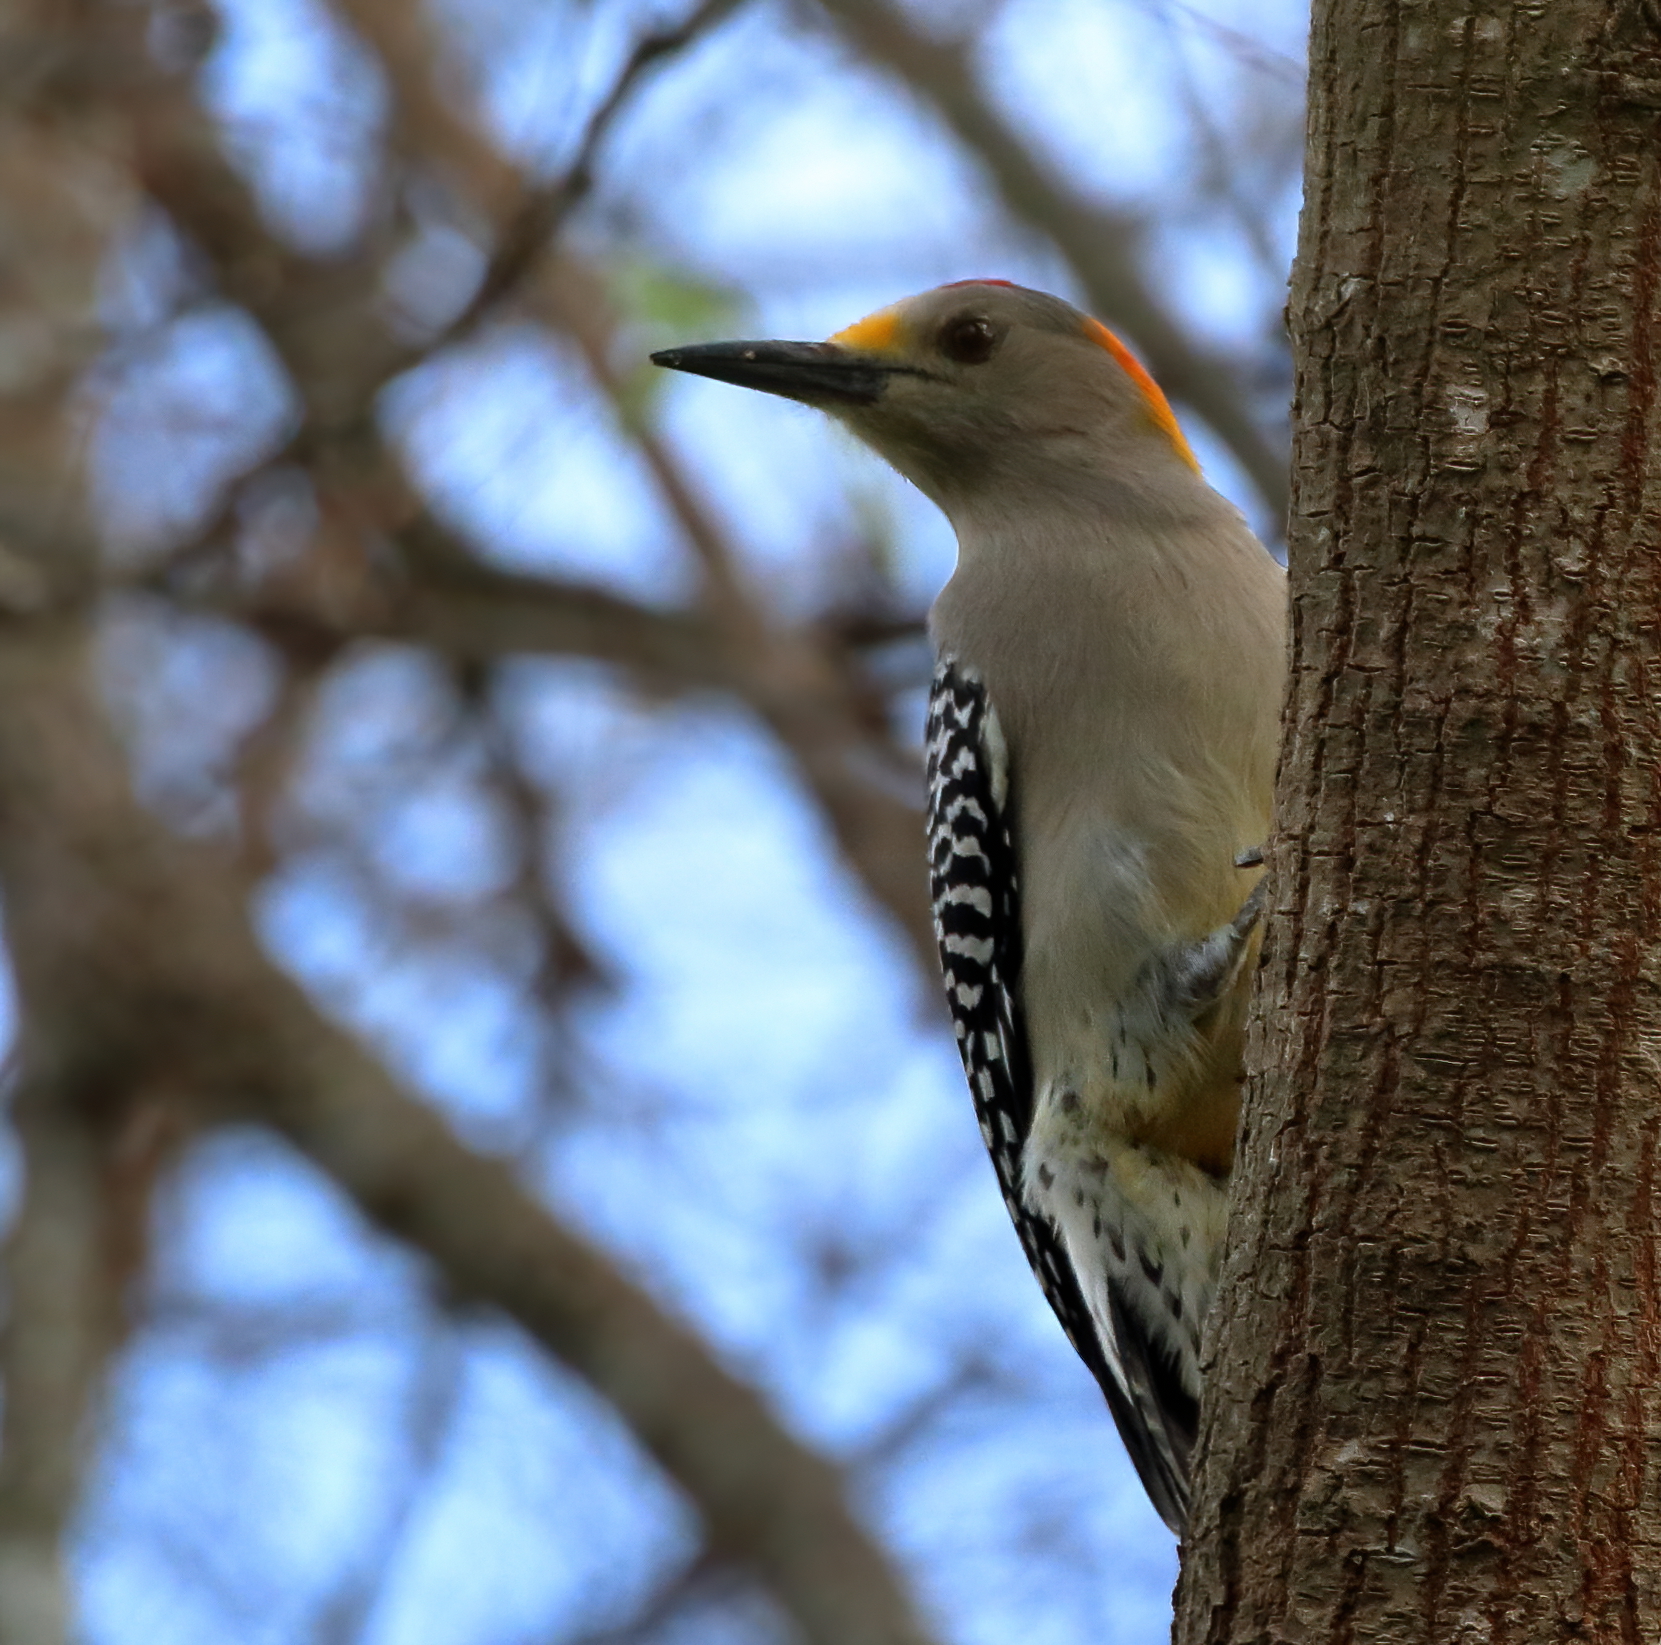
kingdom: Animalia
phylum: Chordata
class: Aves
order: Piciformes
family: Picidae
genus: Melanerpes
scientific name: Melanerpes aurifrons
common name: Golden-fronted woodpecker
